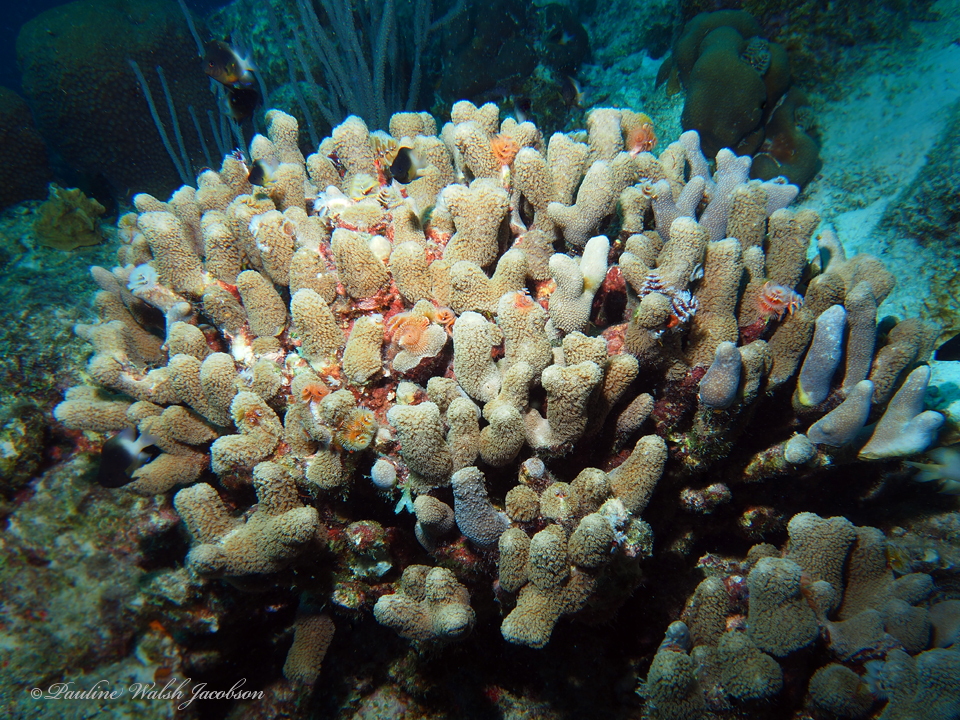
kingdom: Animalia
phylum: Cnidaria
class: Anthozoa
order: Scleractinia
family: Poritidae
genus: Porites
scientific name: Porites porites
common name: Finger coral
